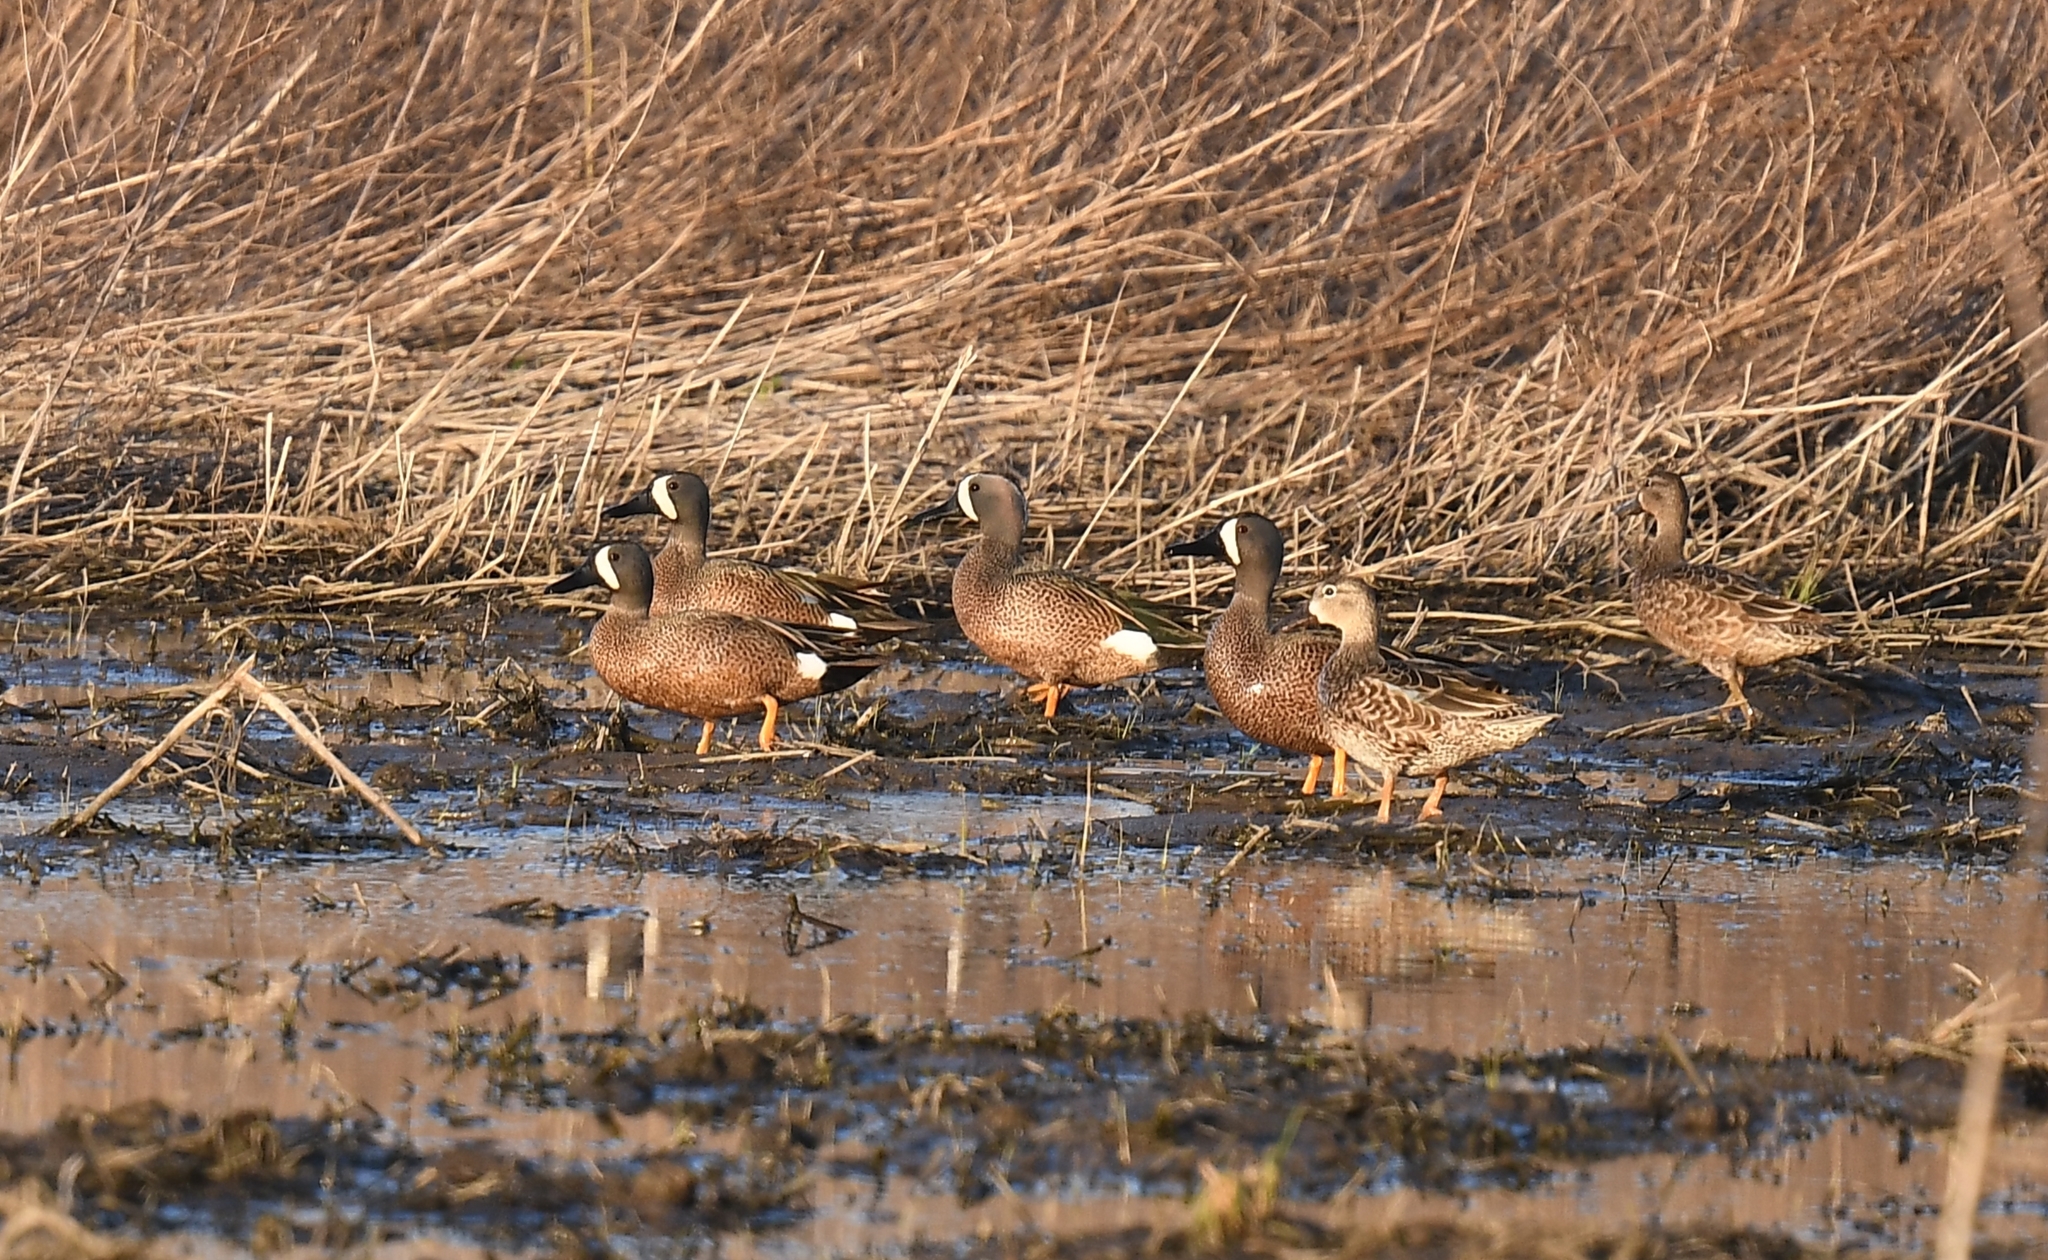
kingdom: Animalia
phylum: Chordata
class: Aves
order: Anseriformes
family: Anatidae
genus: Spatula
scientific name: Spatula discors
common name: Blue-winged teal
